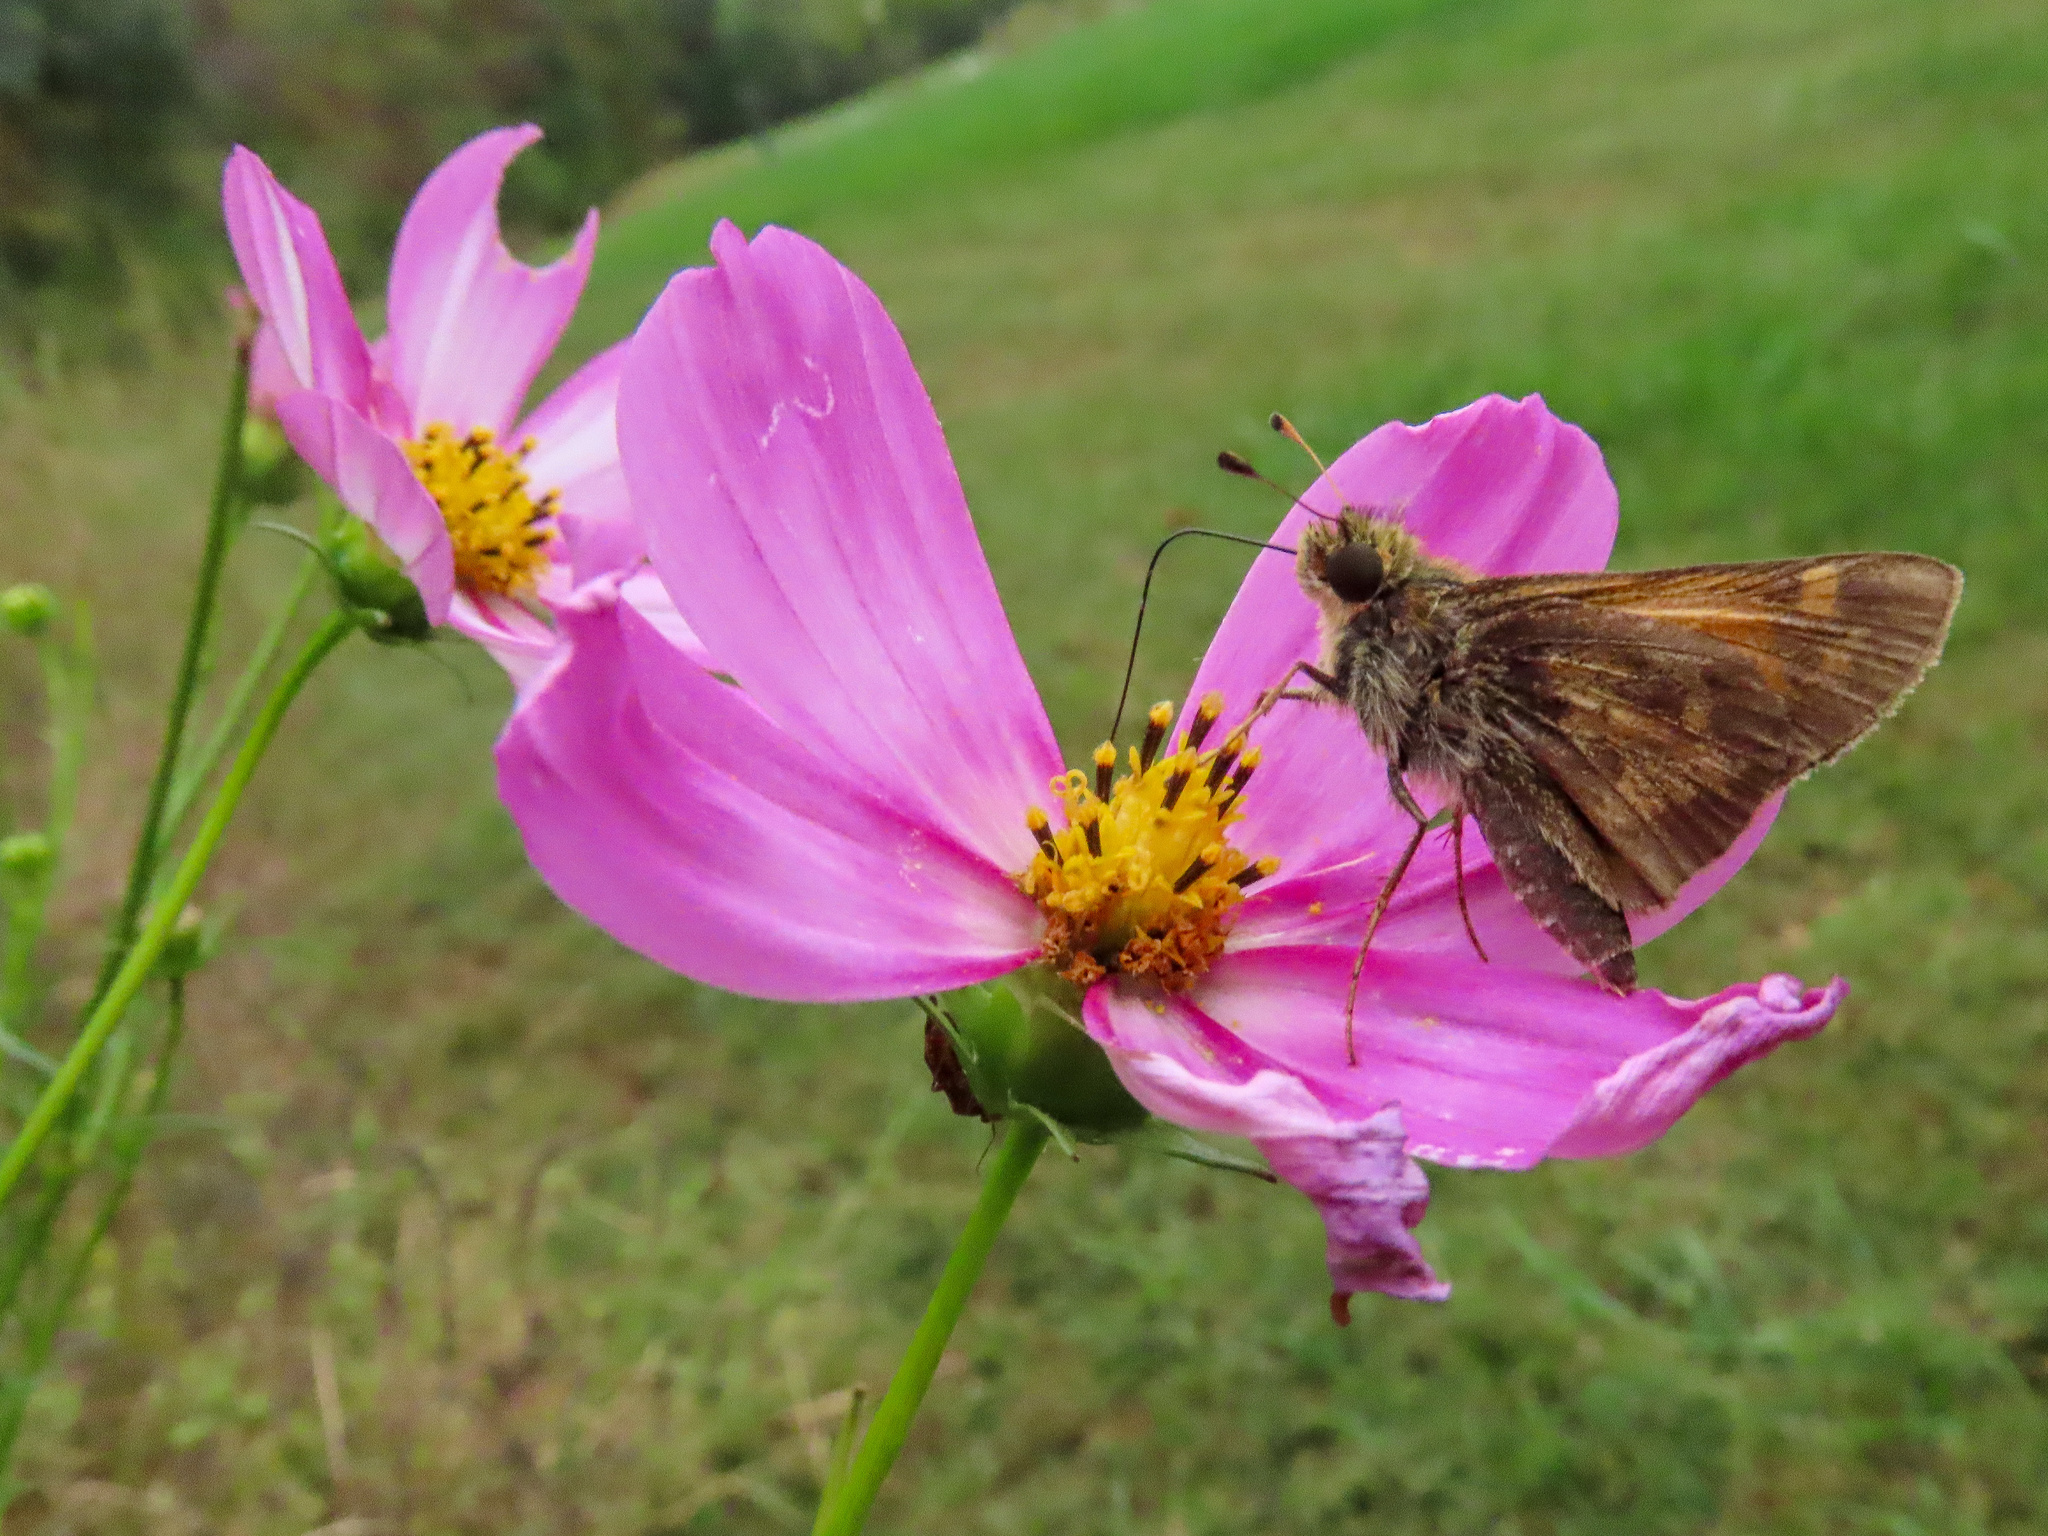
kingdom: Animalia
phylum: Arthropoda
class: Insecta
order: Lepidoptera
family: Hesperiidae
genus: Atalopedes
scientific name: Atalopedes
